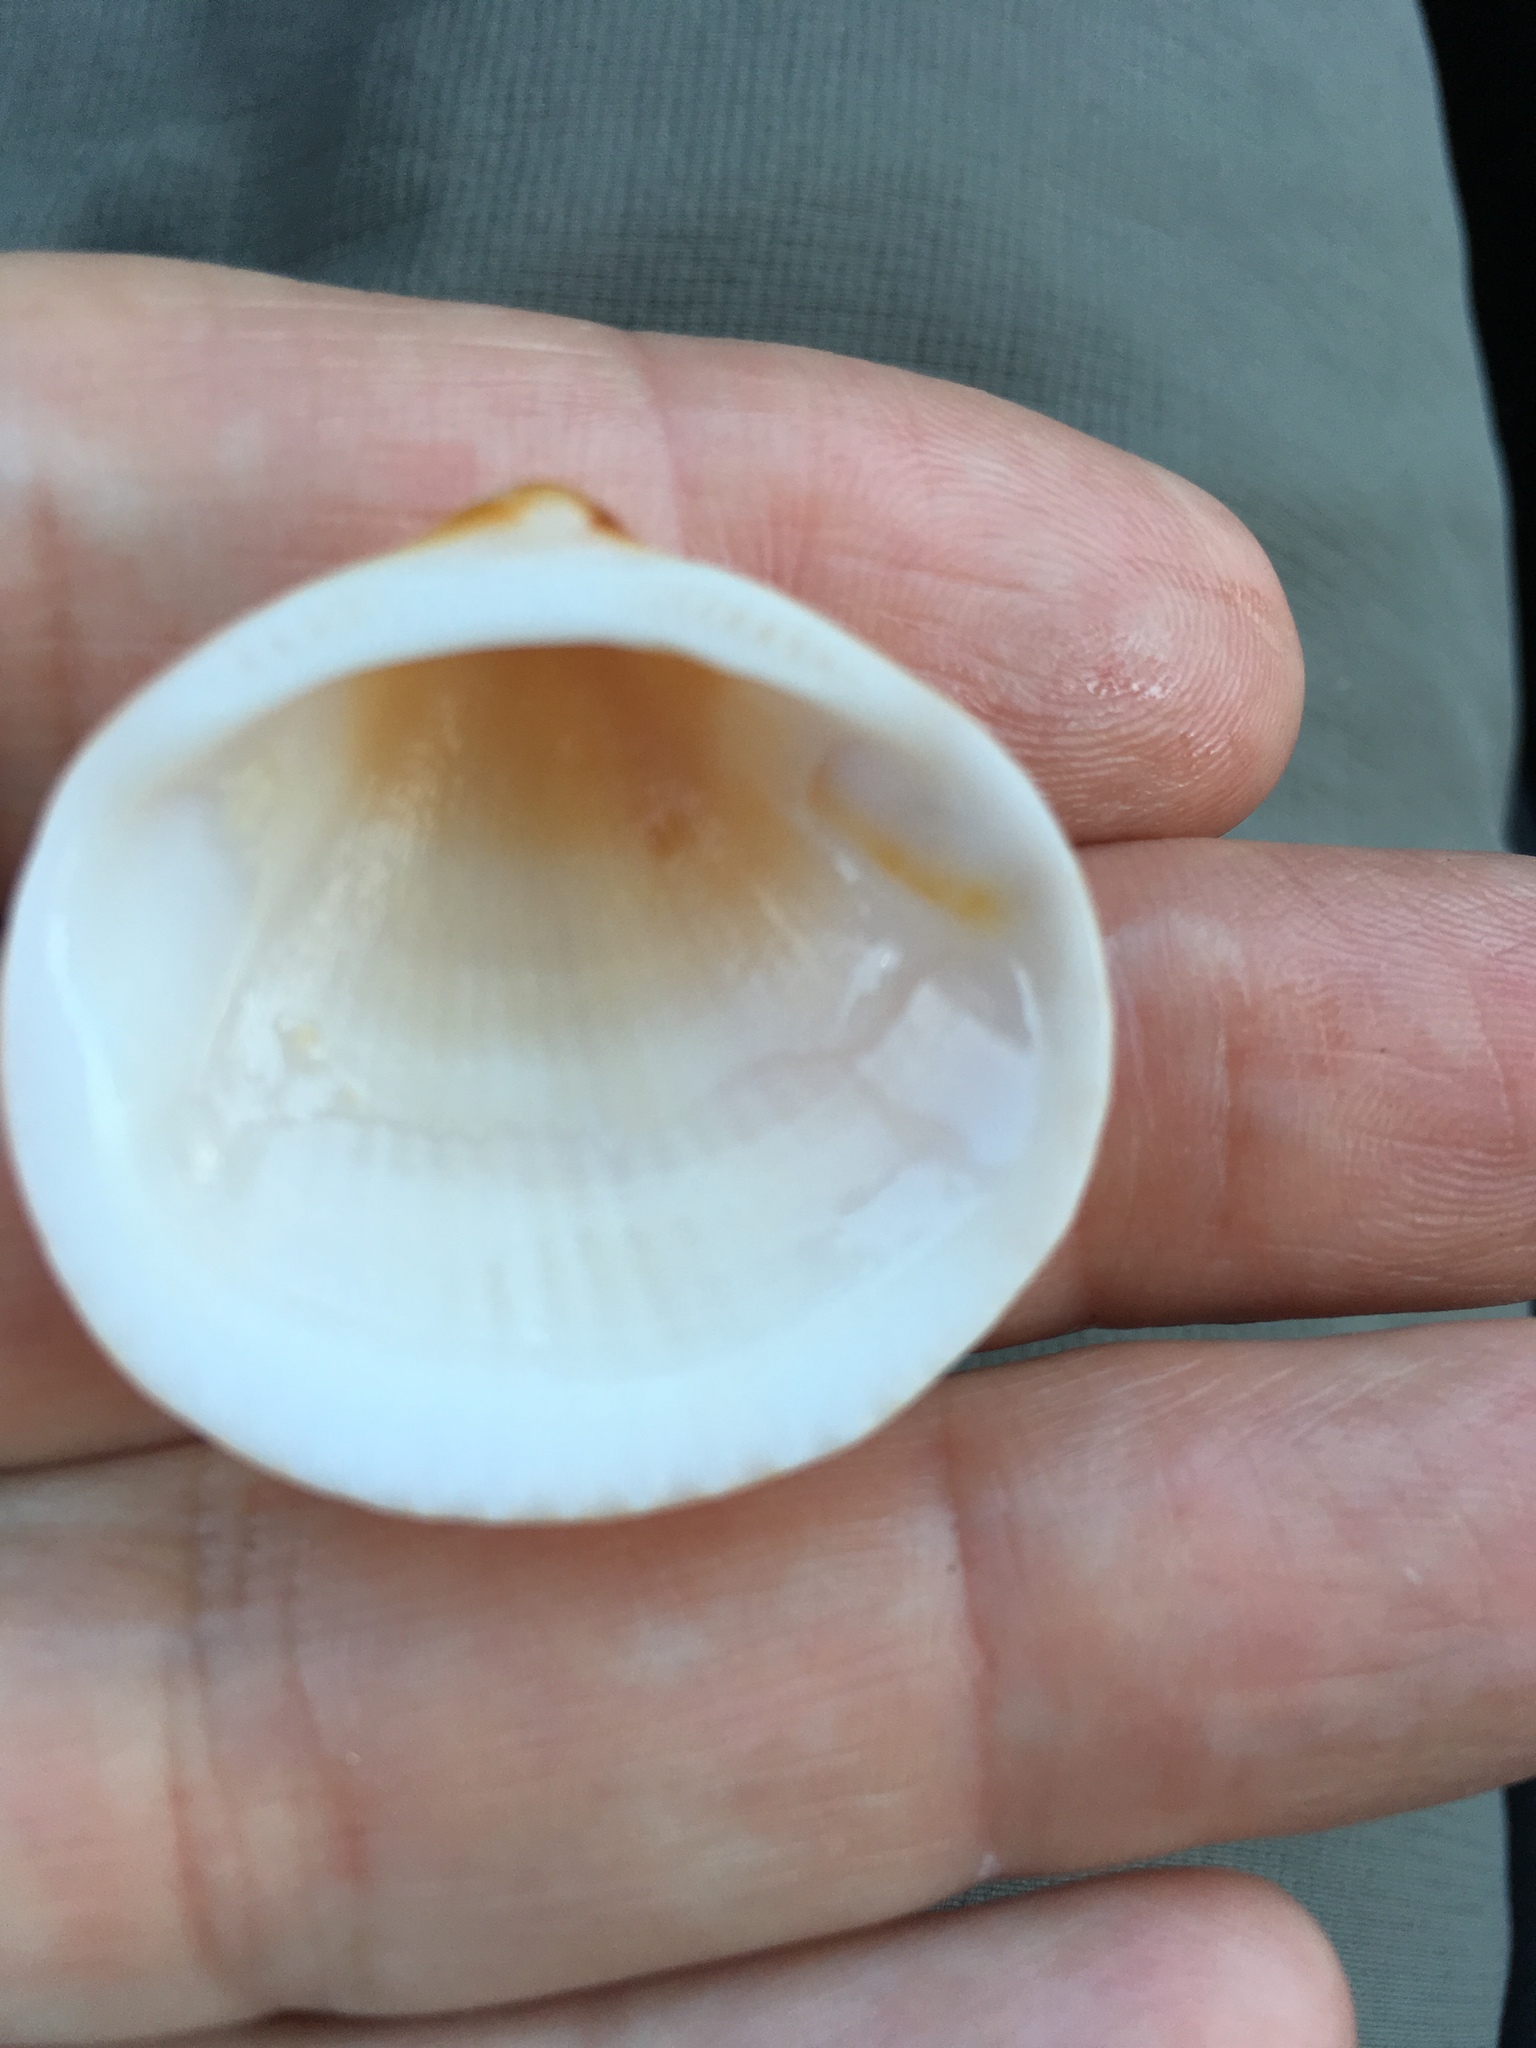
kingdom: Animalia
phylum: Mollusca
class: Bivalvia
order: Arcida
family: Glycymerididae
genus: Glycymeris
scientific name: Glycymeris spectralis
